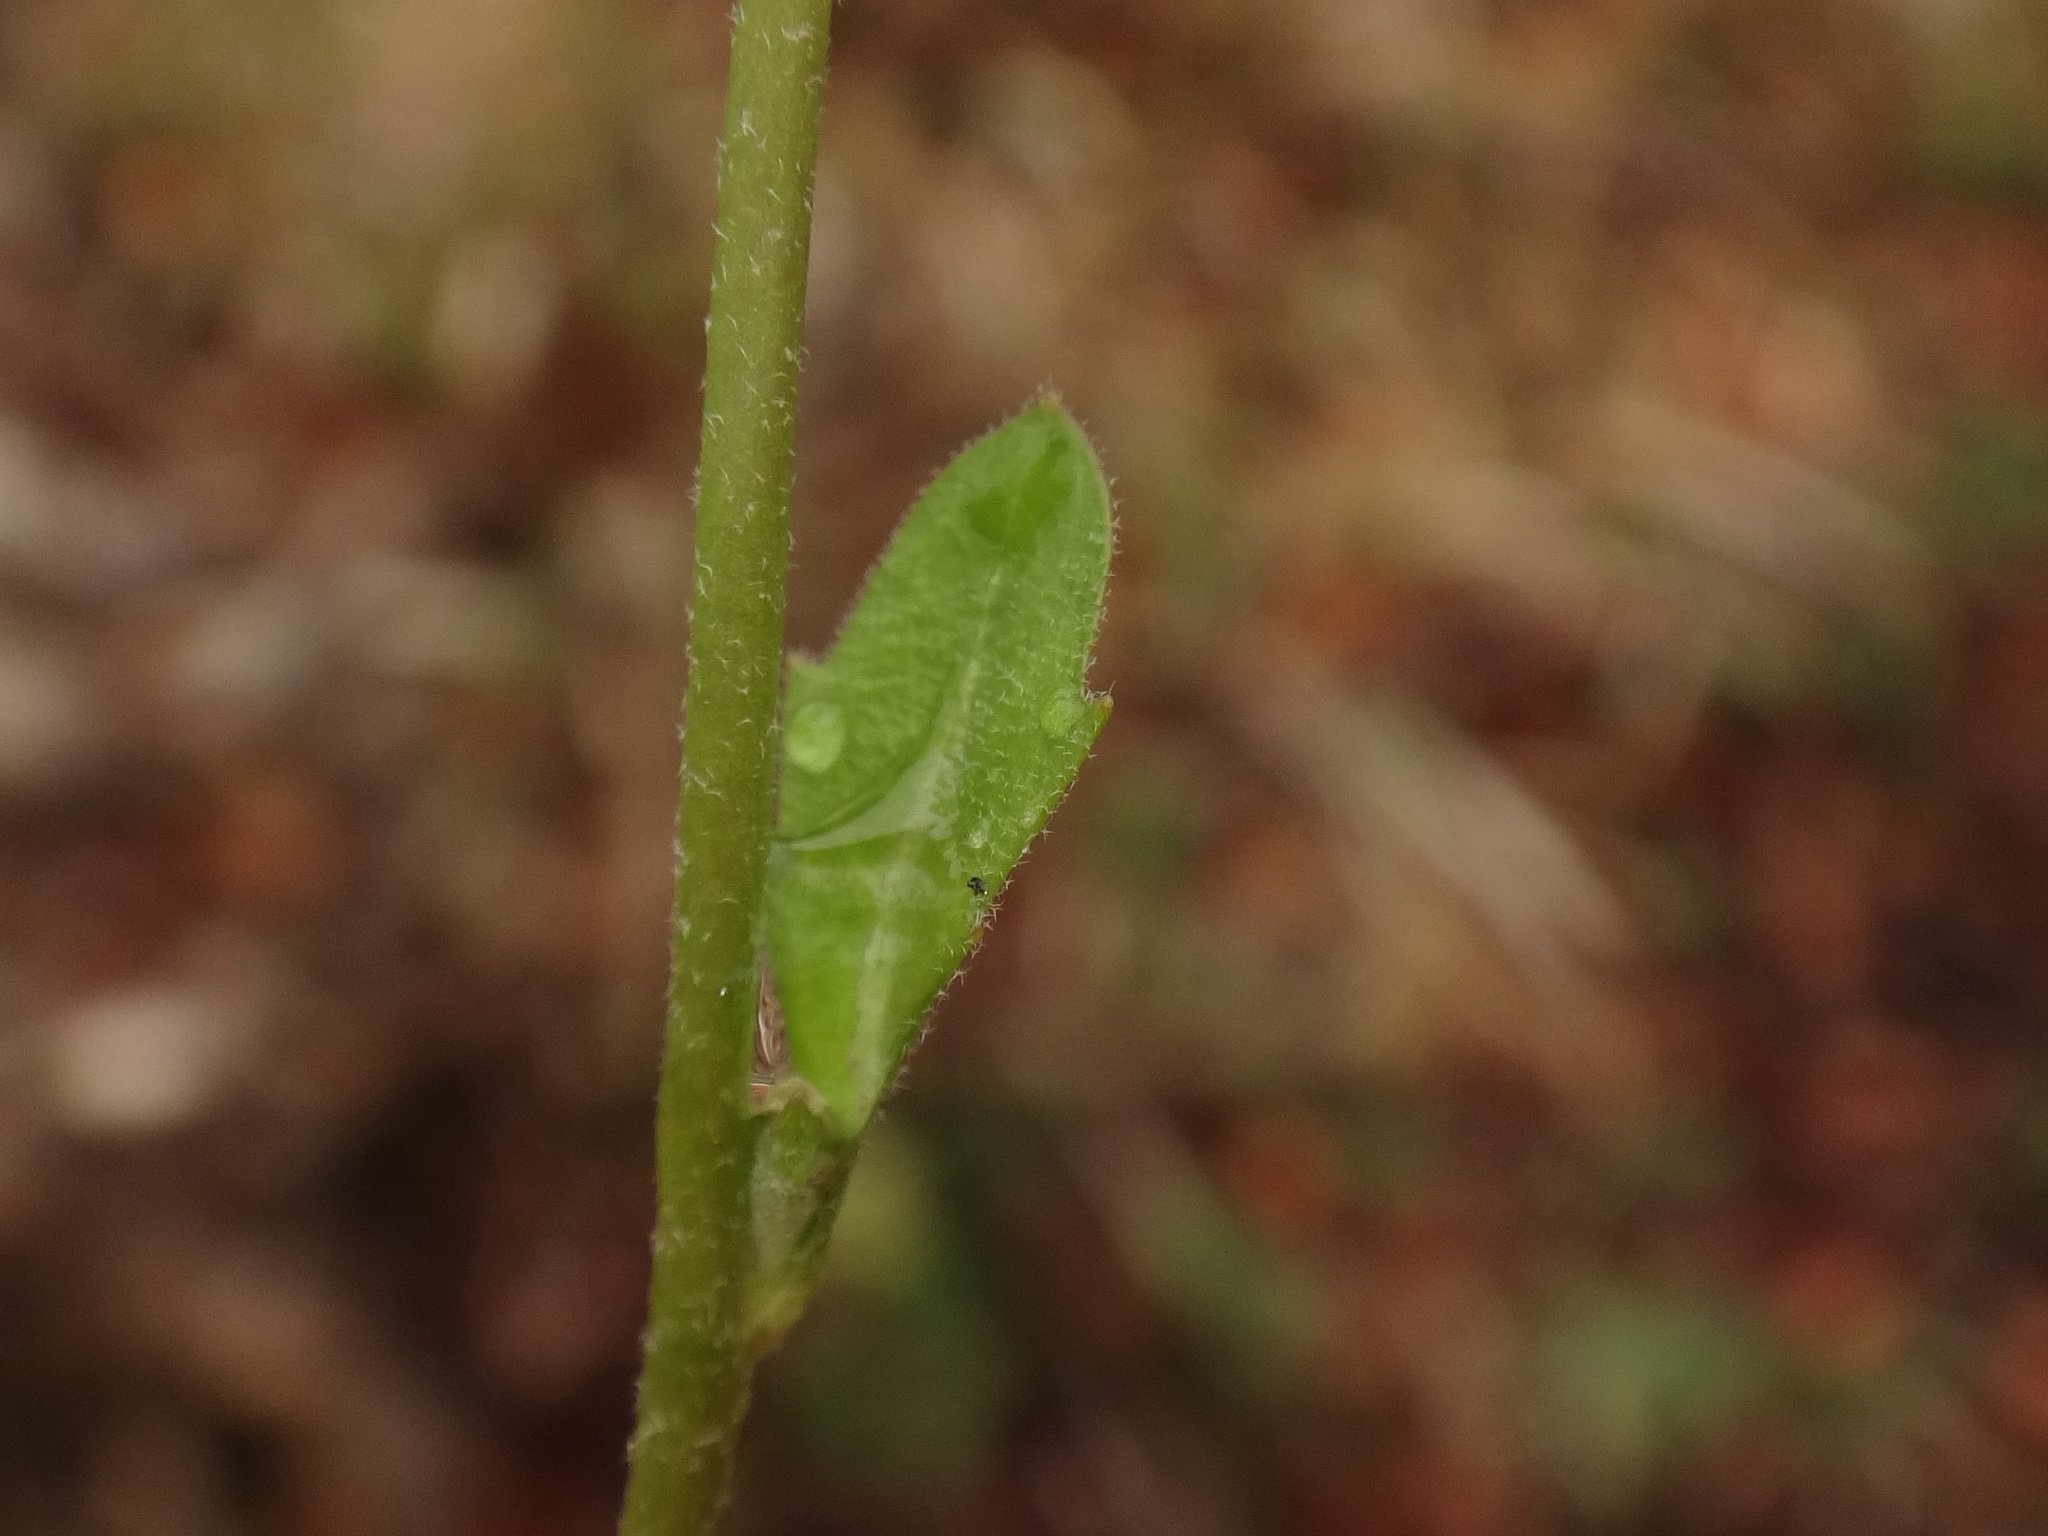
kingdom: Plantae
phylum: Tracheophyta
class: Magnoliopsida
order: Brassicales
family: Brassicaceae
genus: Arabidopsis
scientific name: Arabidopsis halleri
